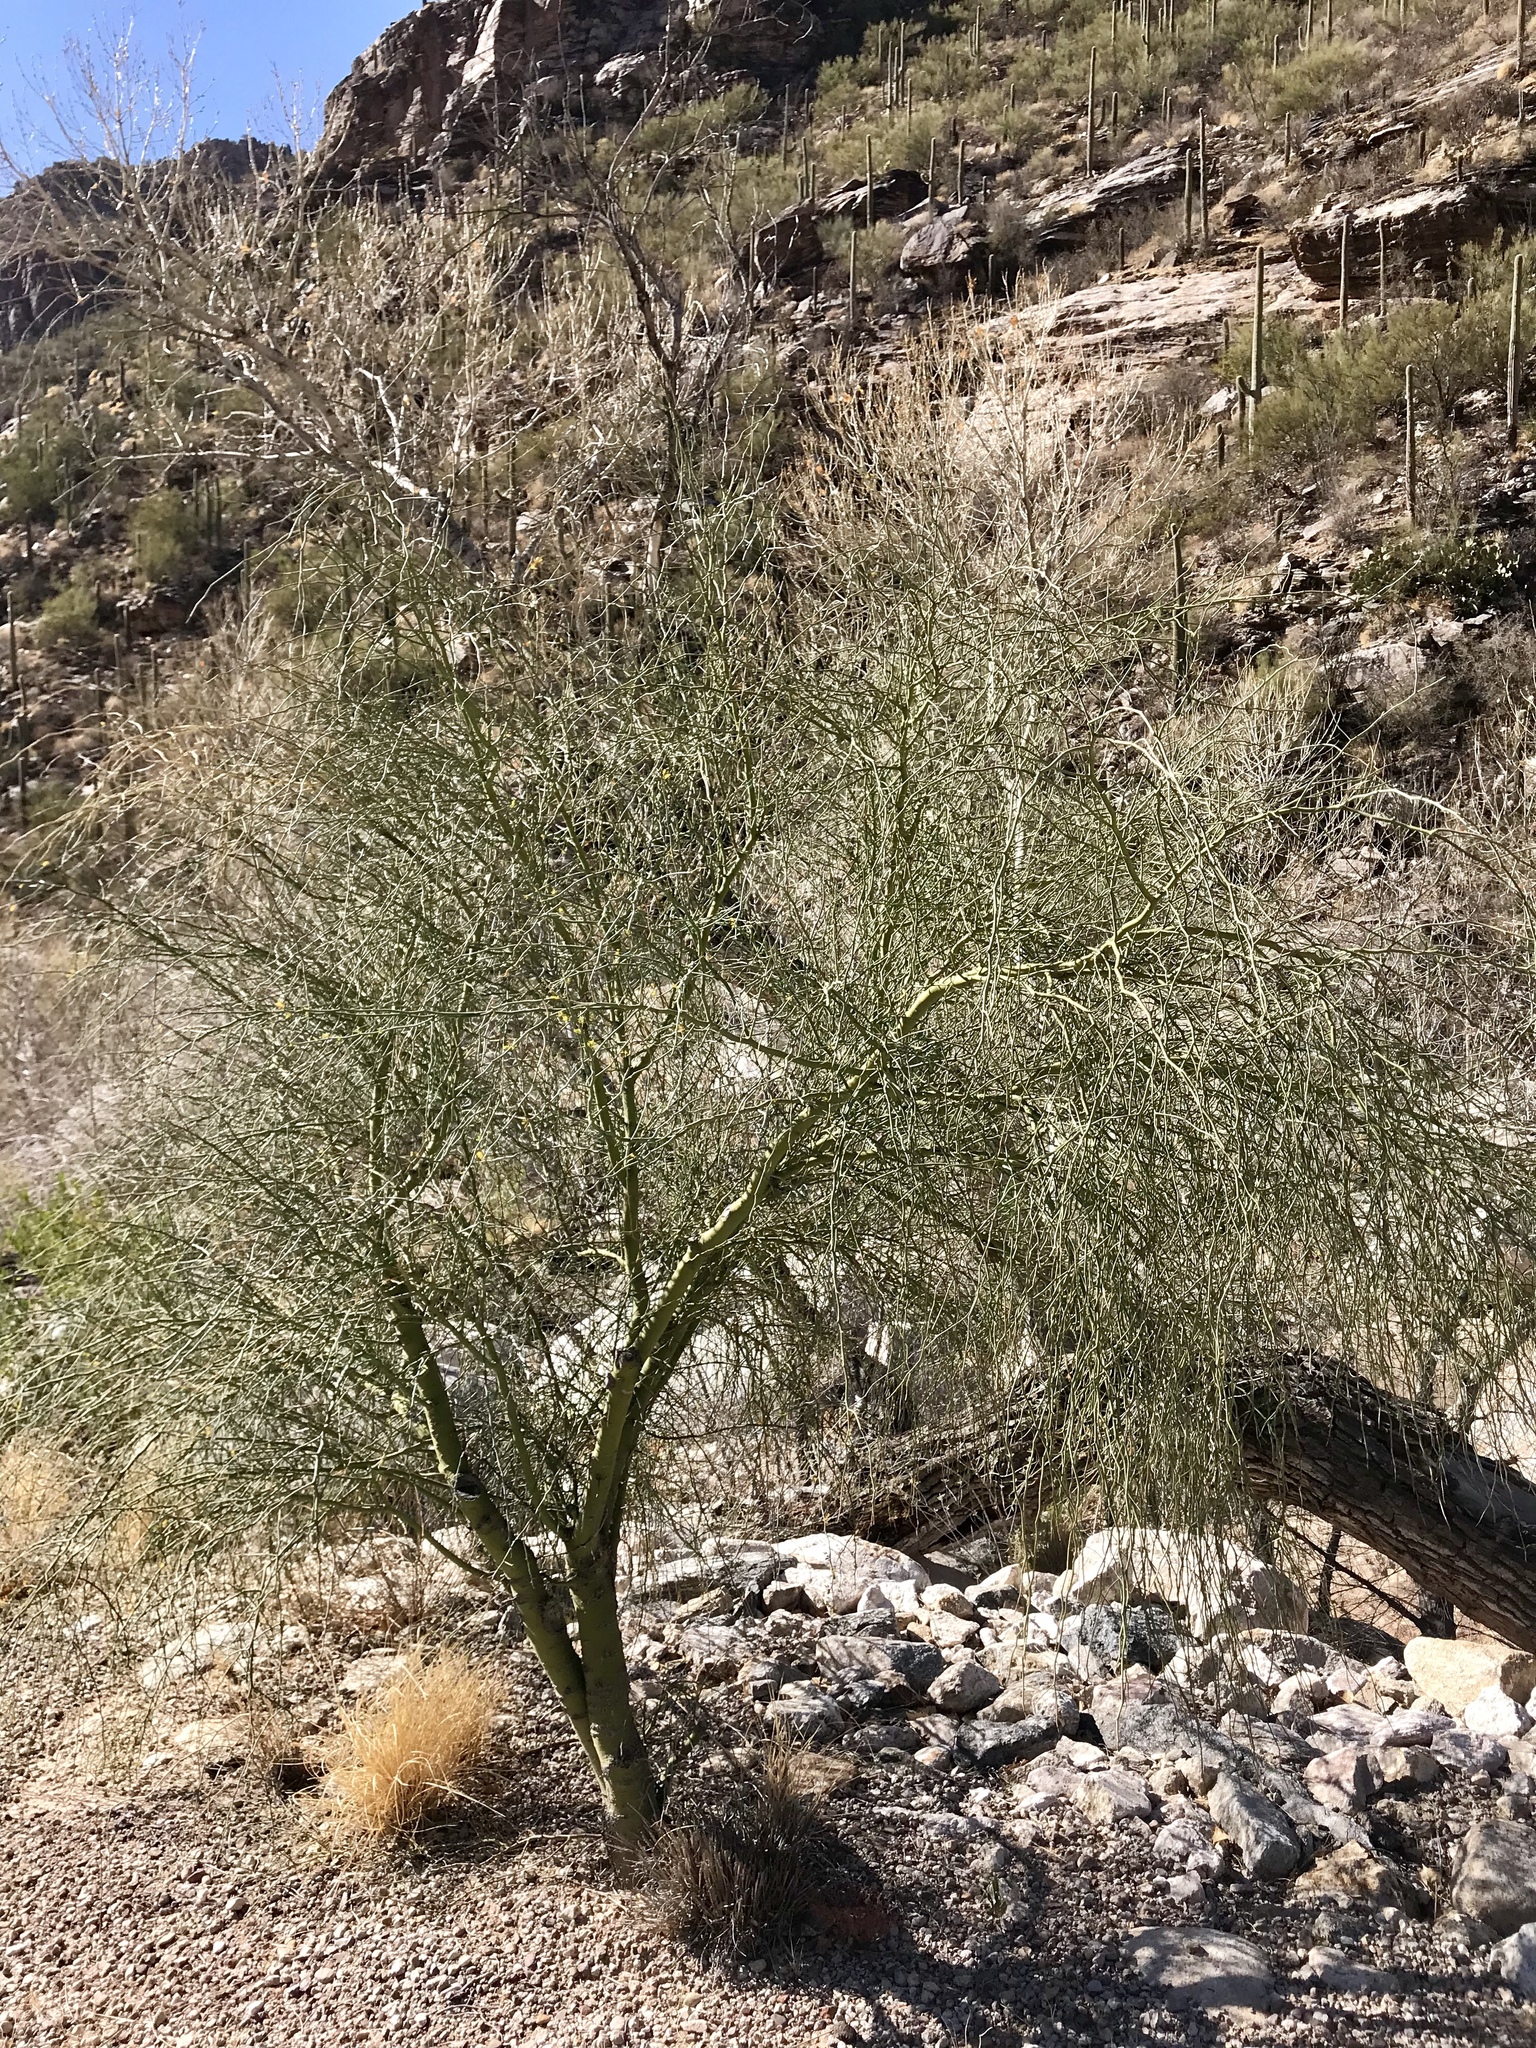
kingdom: Plantae
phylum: Tracheophyta
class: Magnoliopsida
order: Fabales
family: Fabaceae
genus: Parkinsonia
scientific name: Parkinsonia florida
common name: Blue paloverde
